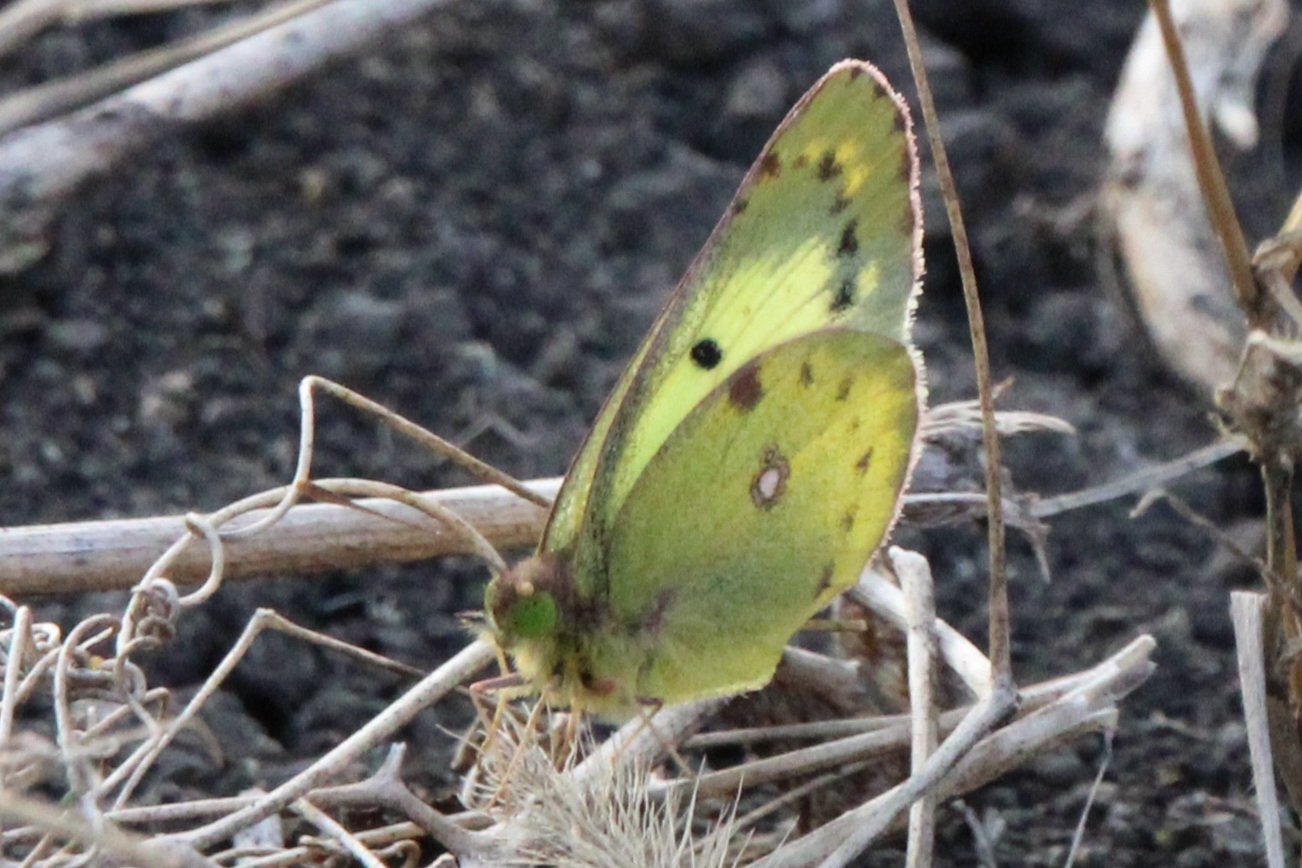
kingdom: Animalia
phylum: Arthropoda
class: Insecta
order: Lepidoptera
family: Pieridae
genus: Colias
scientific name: Colias hyale
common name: Pale clouded yellow
